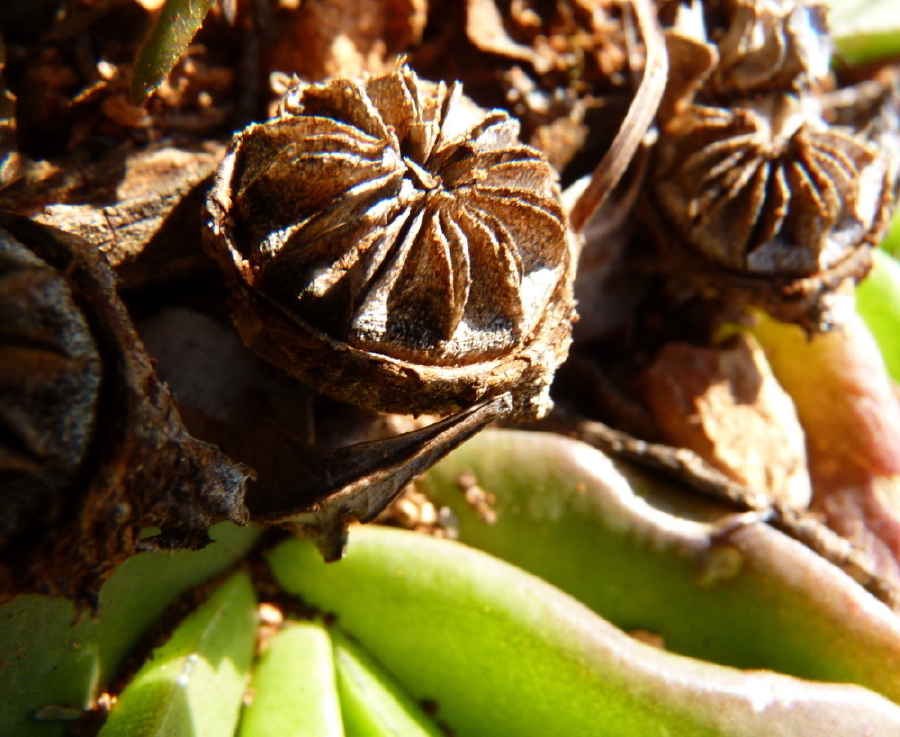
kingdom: Plantae
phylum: Tracheophyta
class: Magnoliopsida
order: Caryophyllales
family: Aizoaceae
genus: Glottiphyllum
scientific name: Glottiphyllum longum
